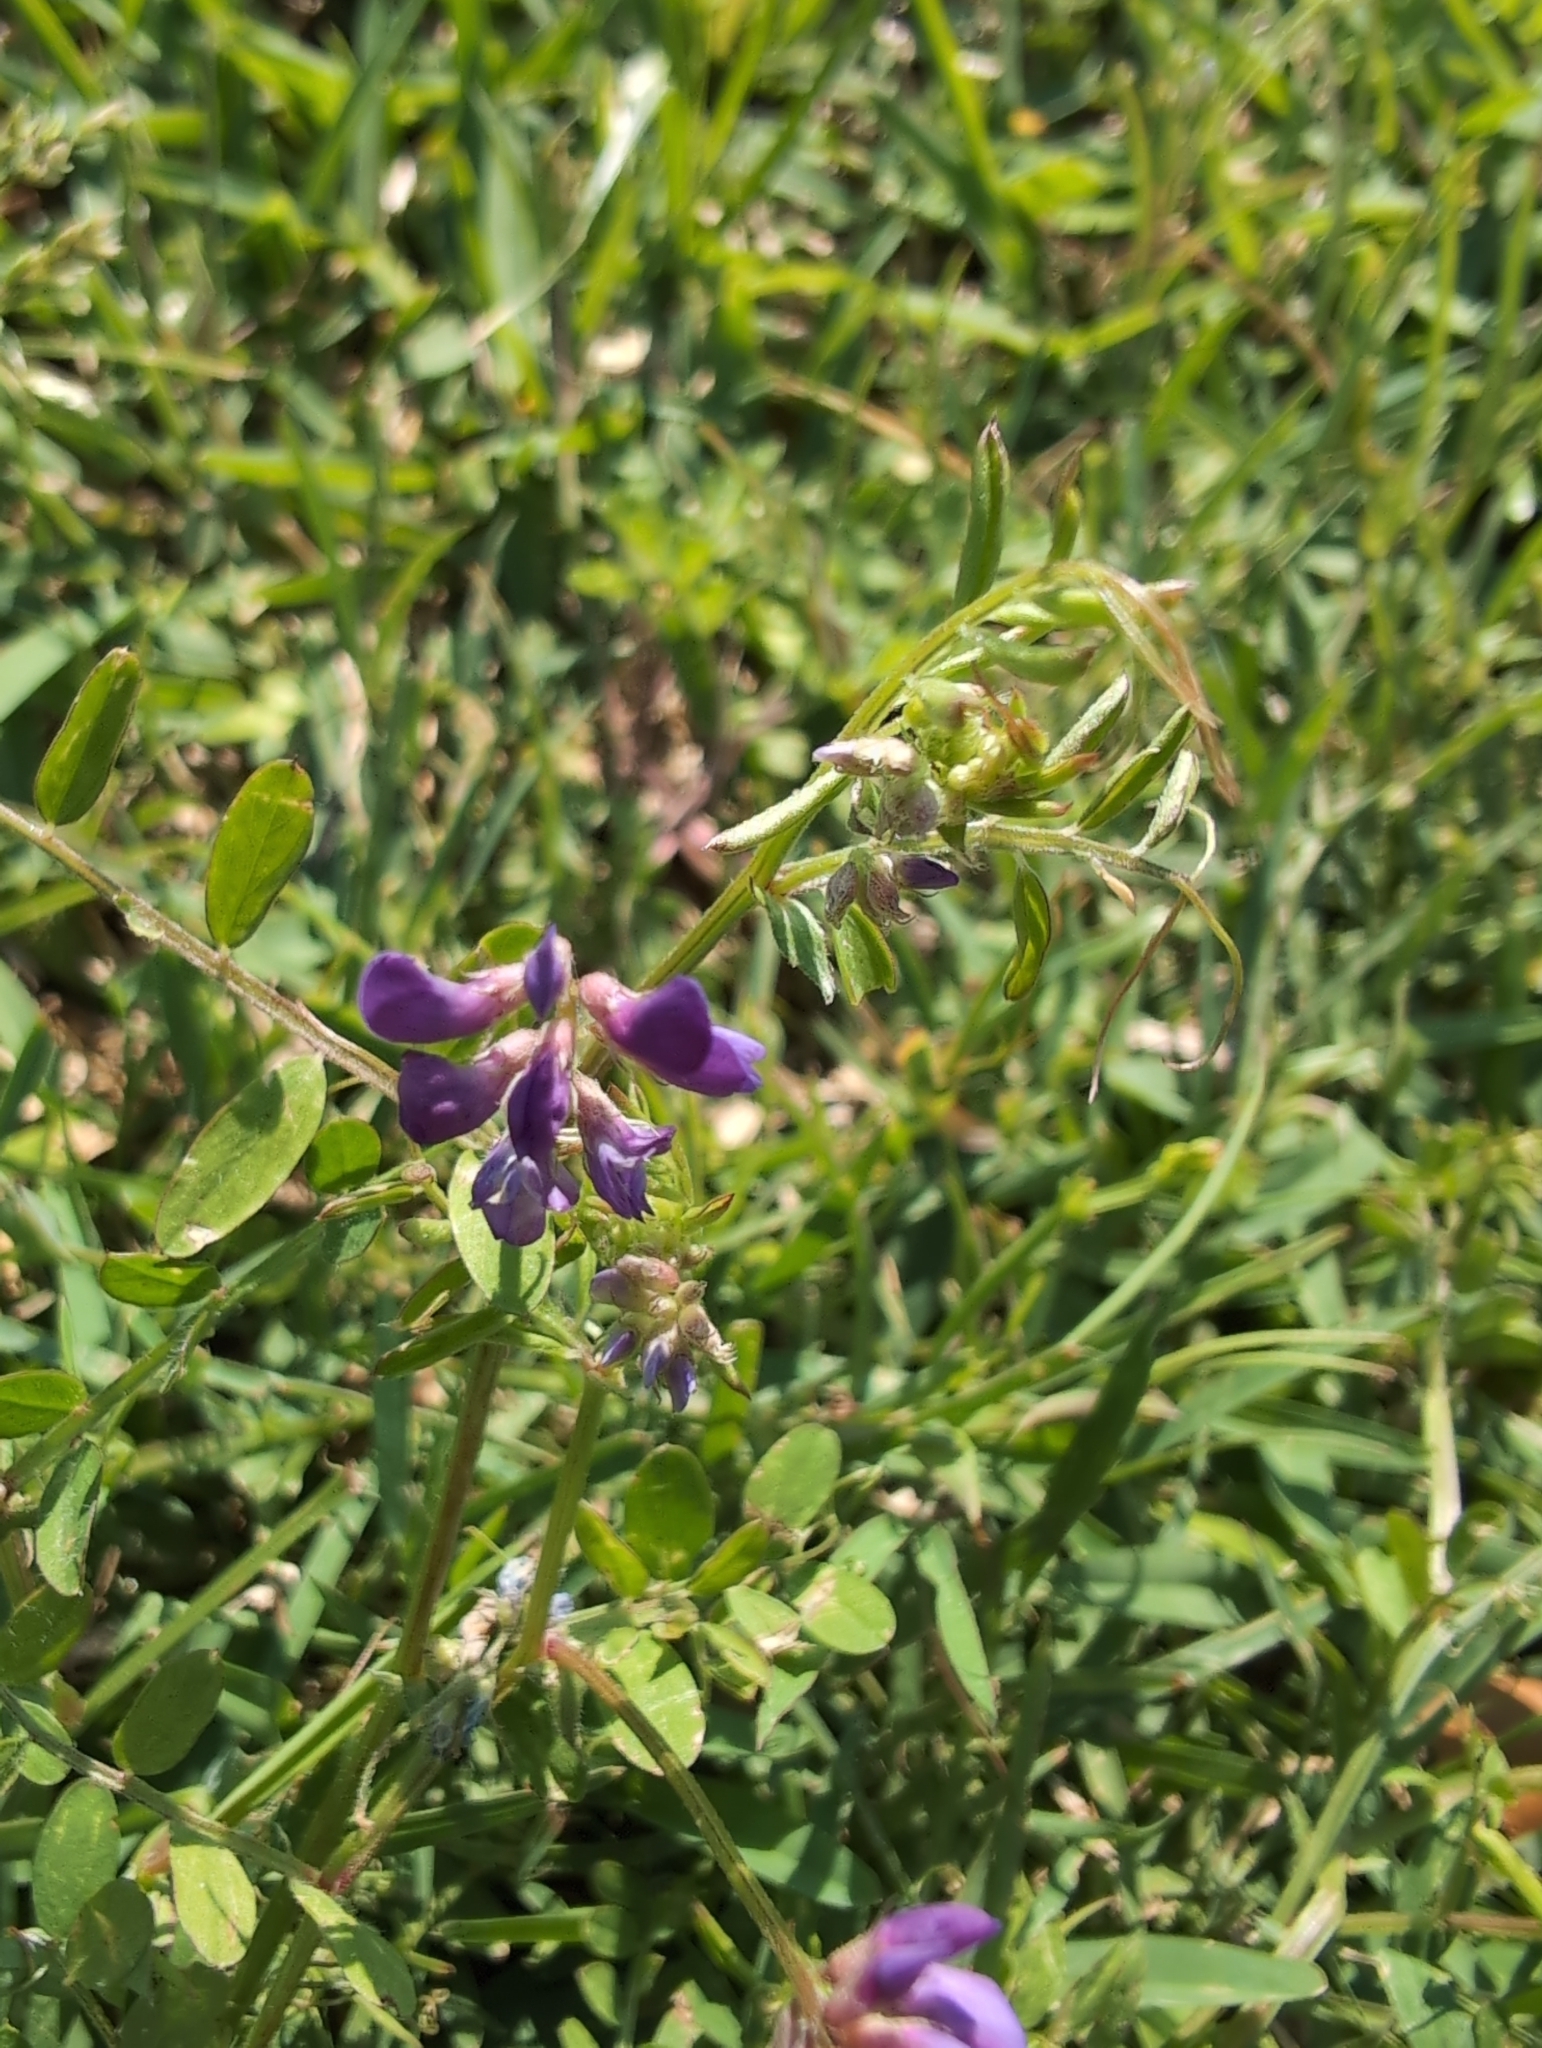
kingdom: Plantae
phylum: Tracheophyta
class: Magnoliopsida
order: Fabales
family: Fabaceae
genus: Vicia
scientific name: Vicia ludoviciana
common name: Louisiana vetch
